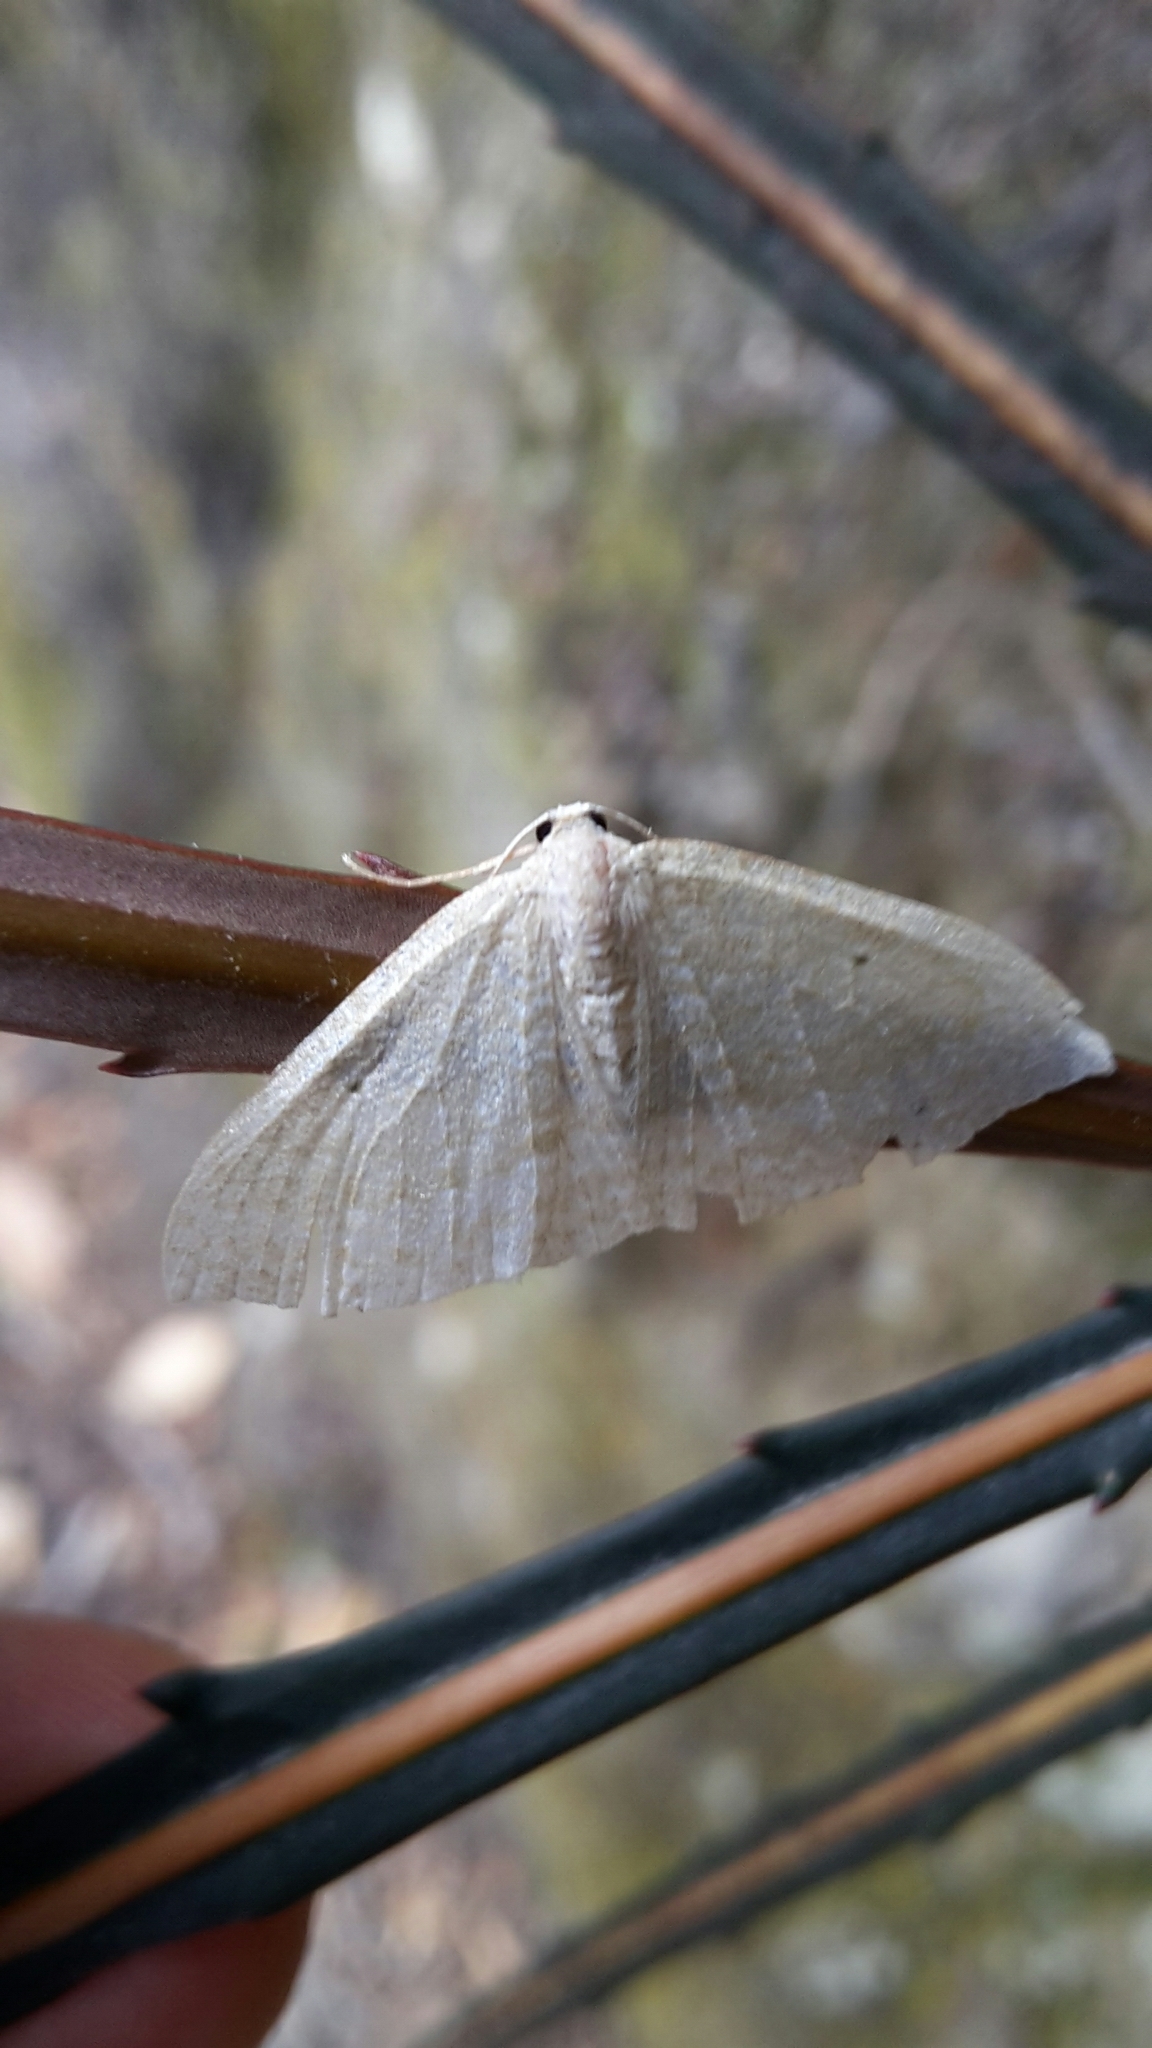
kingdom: Animalia
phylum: Arthropoda
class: Insecta
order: Lepidoptera
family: Geometridae
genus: Poecilasthena
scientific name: Poecilasthena pulchraria
